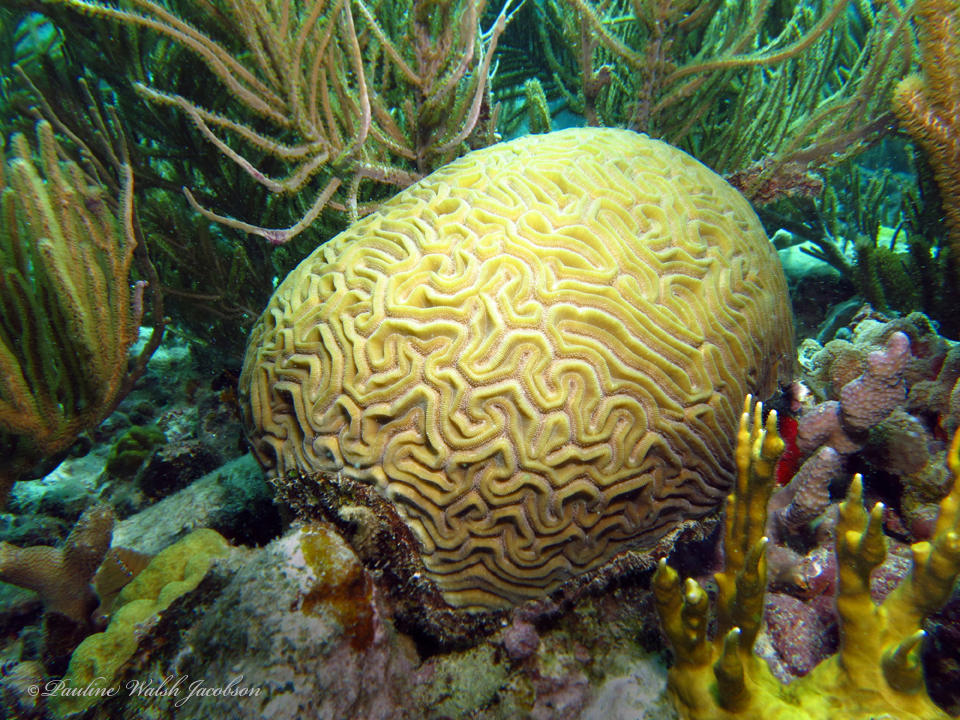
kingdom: Animalia
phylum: Cnidaria
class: Anthozoa
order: Scleractinia
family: Faviidae
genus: Diploria
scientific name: Diploria labyrinthiformis
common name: Grooved brain coral
